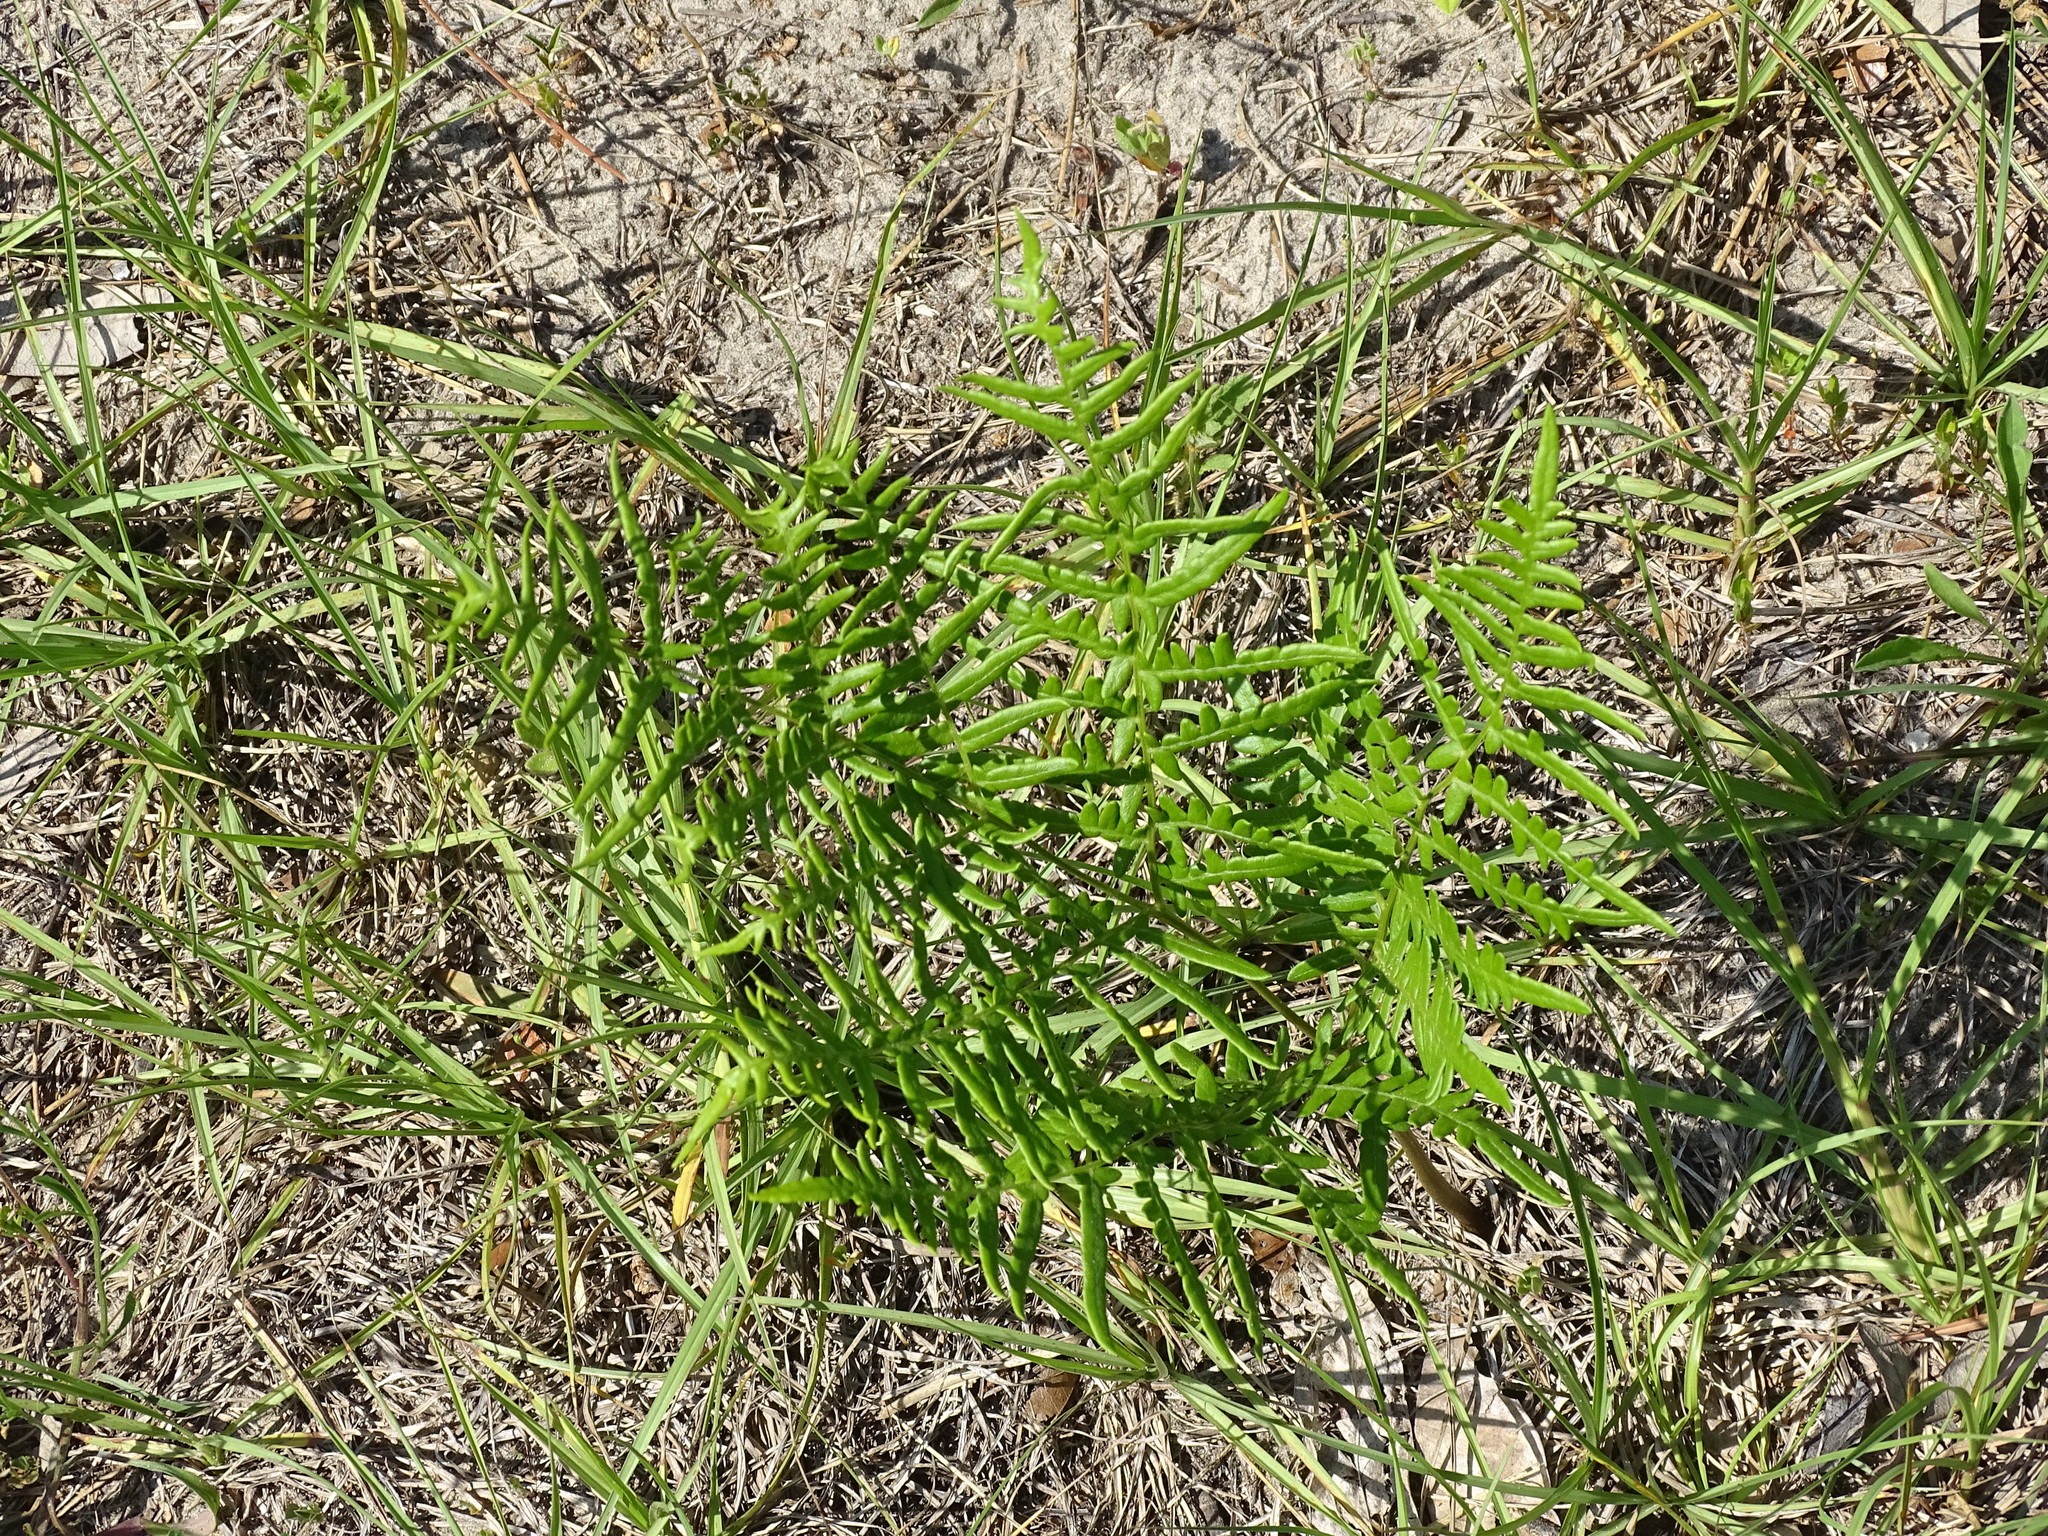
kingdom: Plantae
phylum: Tracheophyta
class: Polypodiopsida
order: Polypodiales
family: Dennstaedtiaceae
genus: Pteridium
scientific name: Pteridium aquilinum
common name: Bracken
